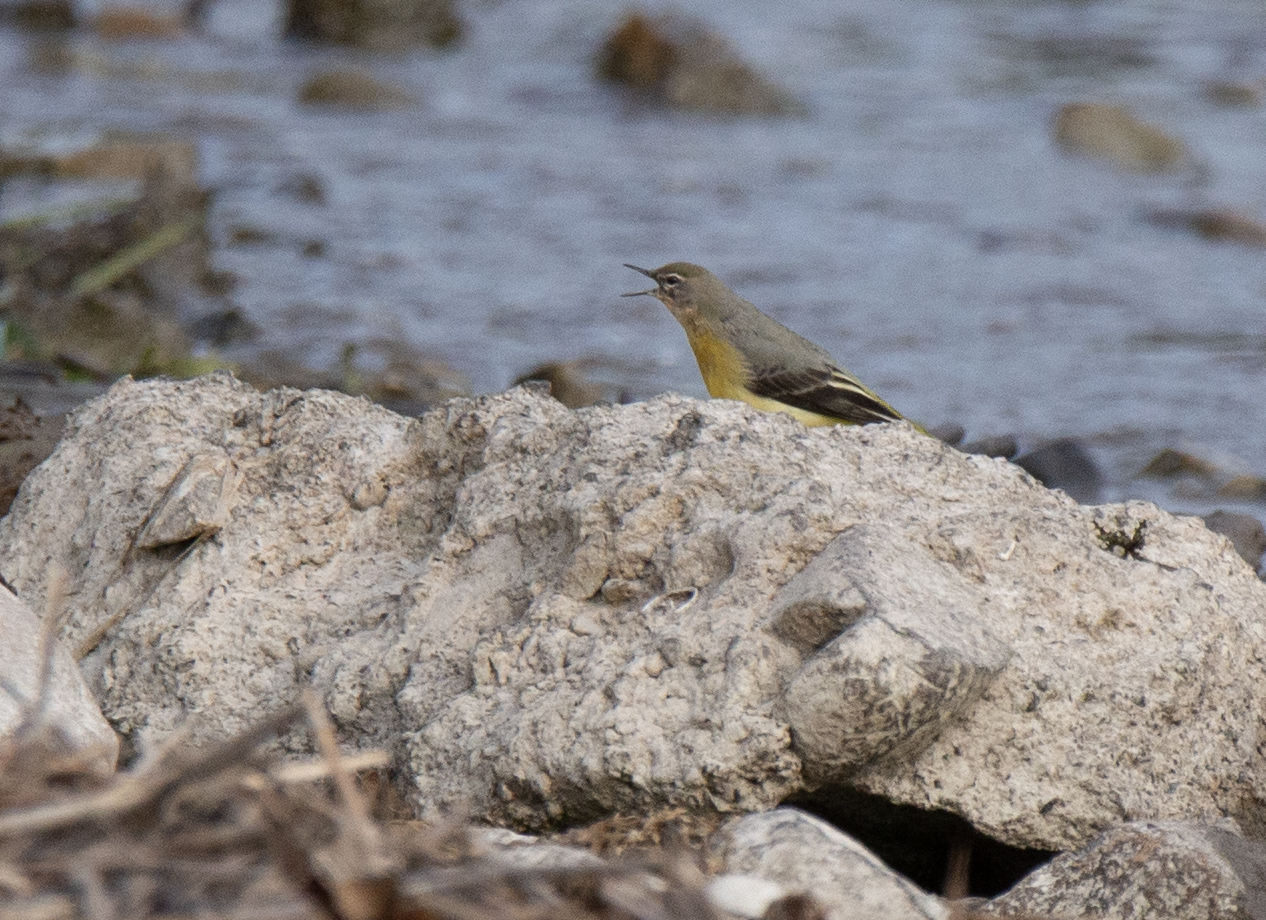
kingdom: Animalia
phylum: Chordata
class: Aves
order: Passeriformes
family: Motacillidae
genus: Motacilla
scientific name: Motacilla cinerea
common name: Grey wagtail
